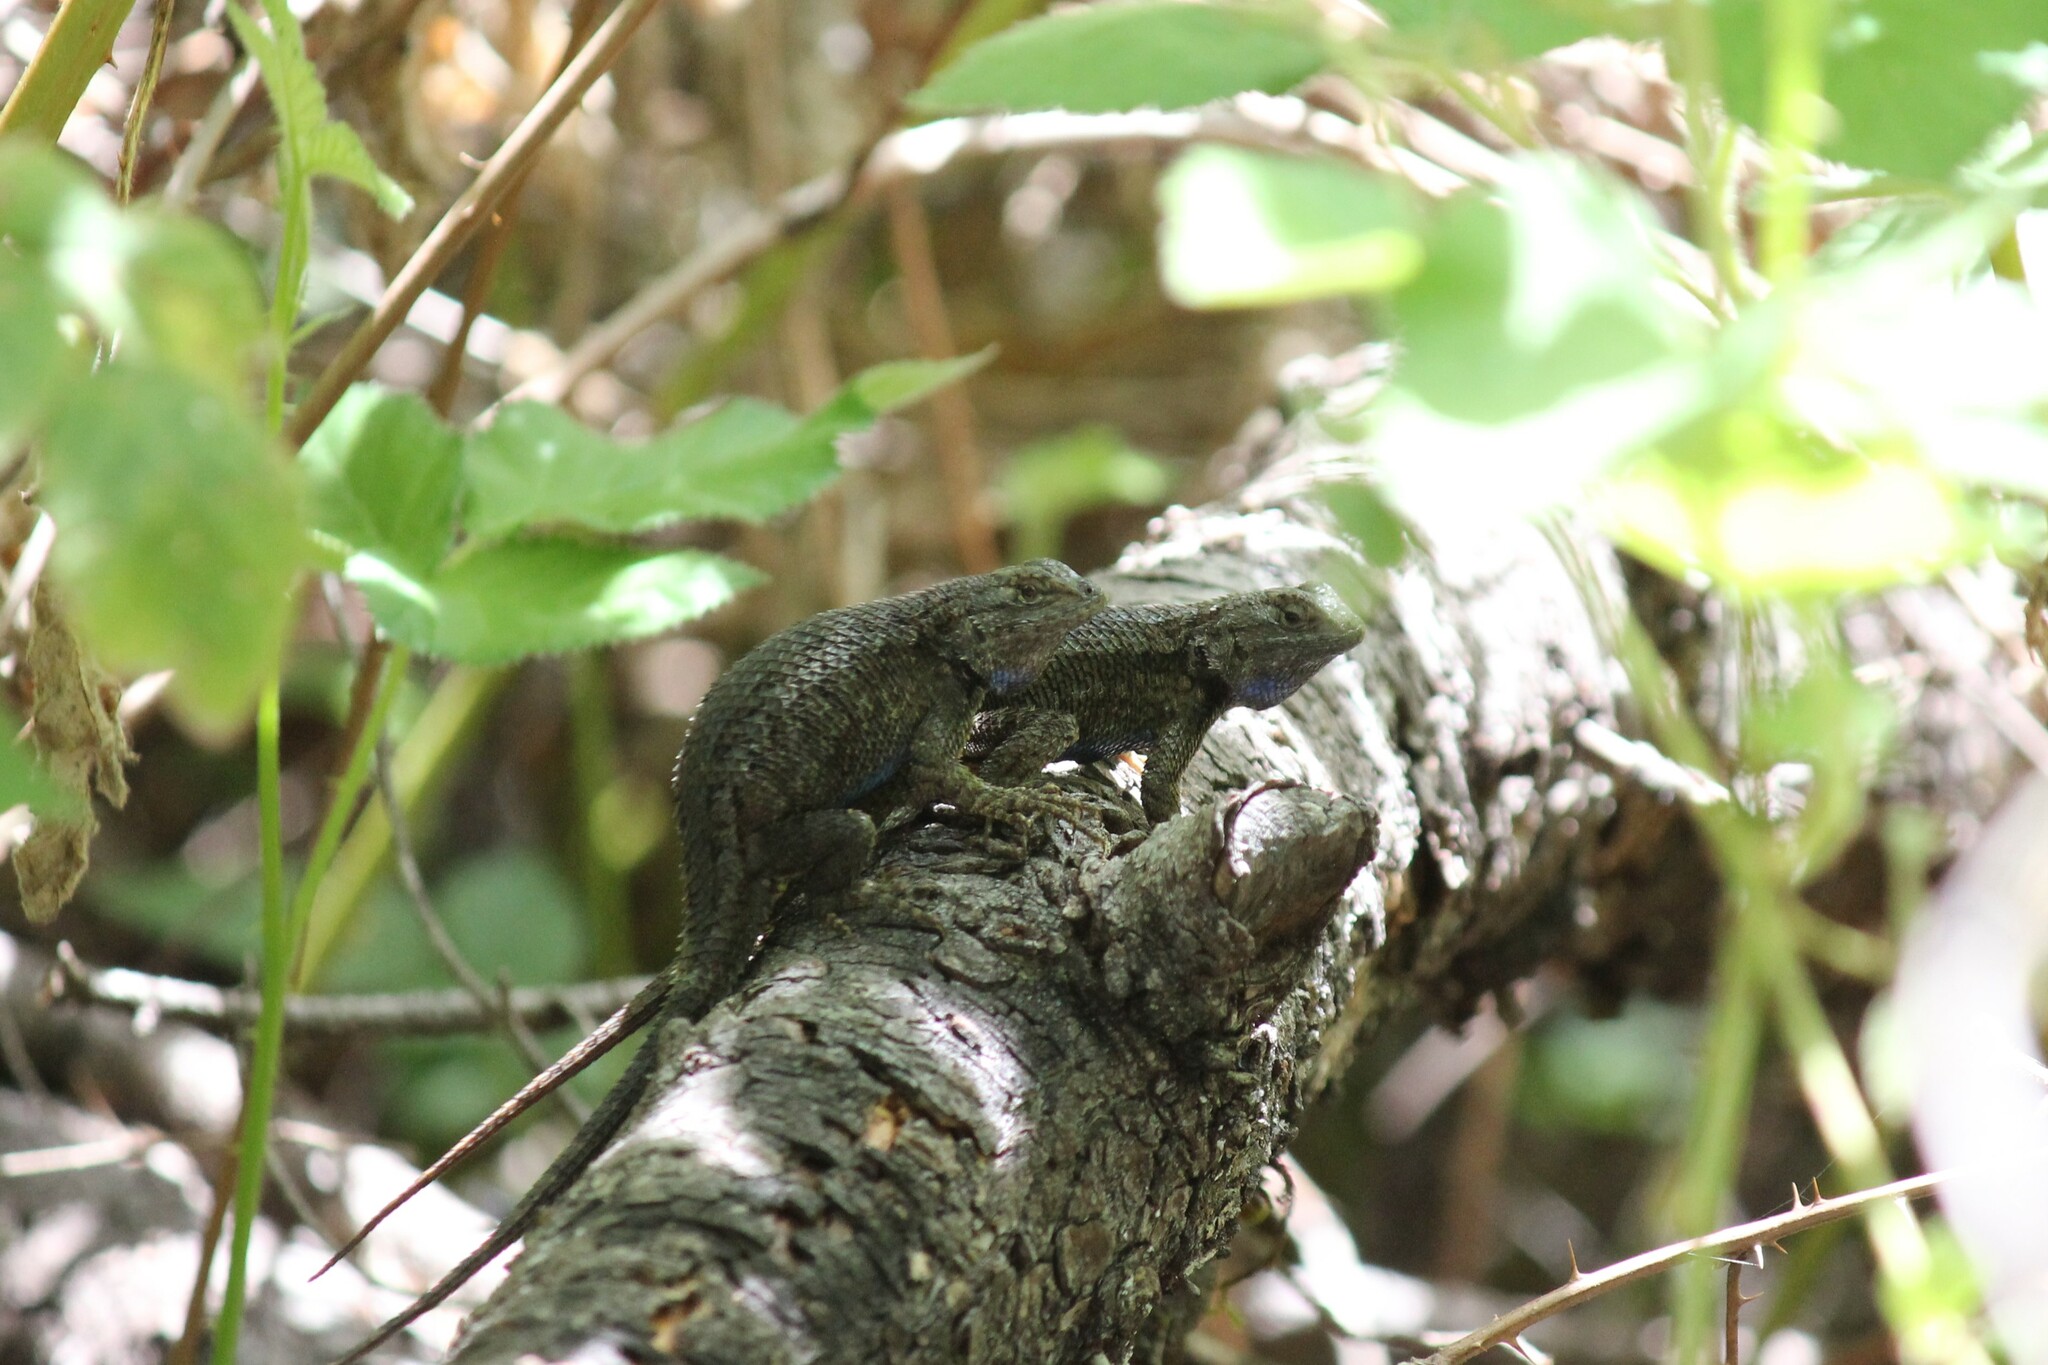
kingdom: Animalia
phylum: Chordata
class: Squamata
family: Phrynosomatidae
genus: Sceloporus
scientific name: Sceloporus occidentalis
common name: Western fence lizard
